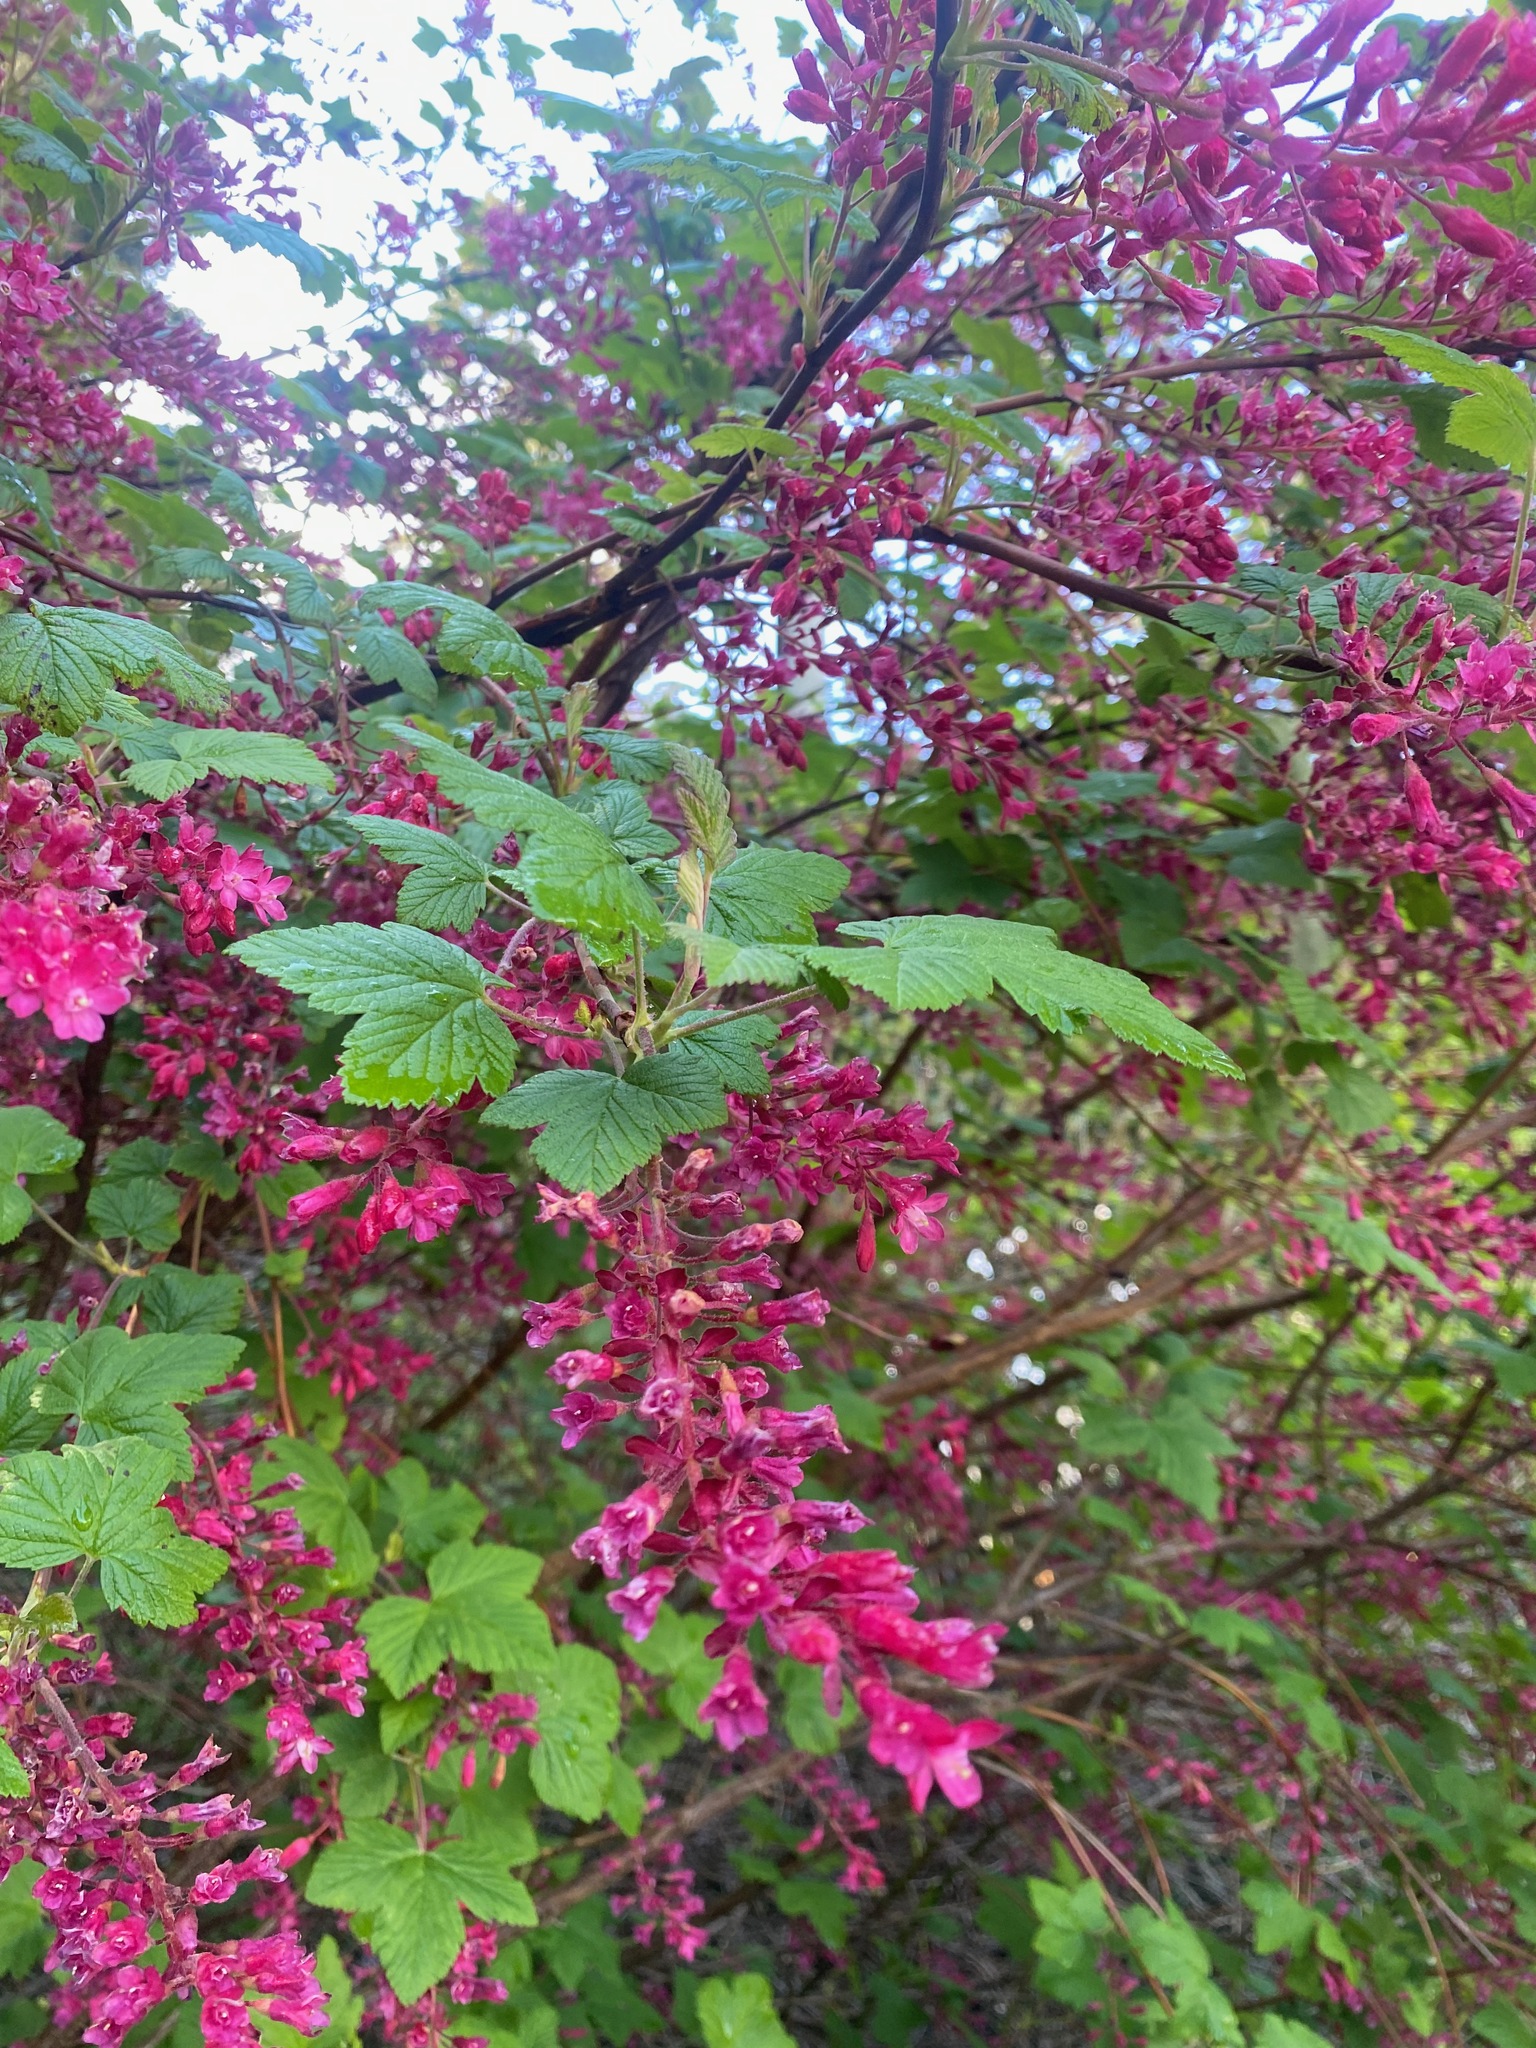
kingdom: Plantae
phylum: Tracheophyta
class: Magnoliopsida
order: Saxifragales
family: Grossulariaceae
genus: Ribes
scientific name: Ribes sanguineum
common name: Flowering currant
